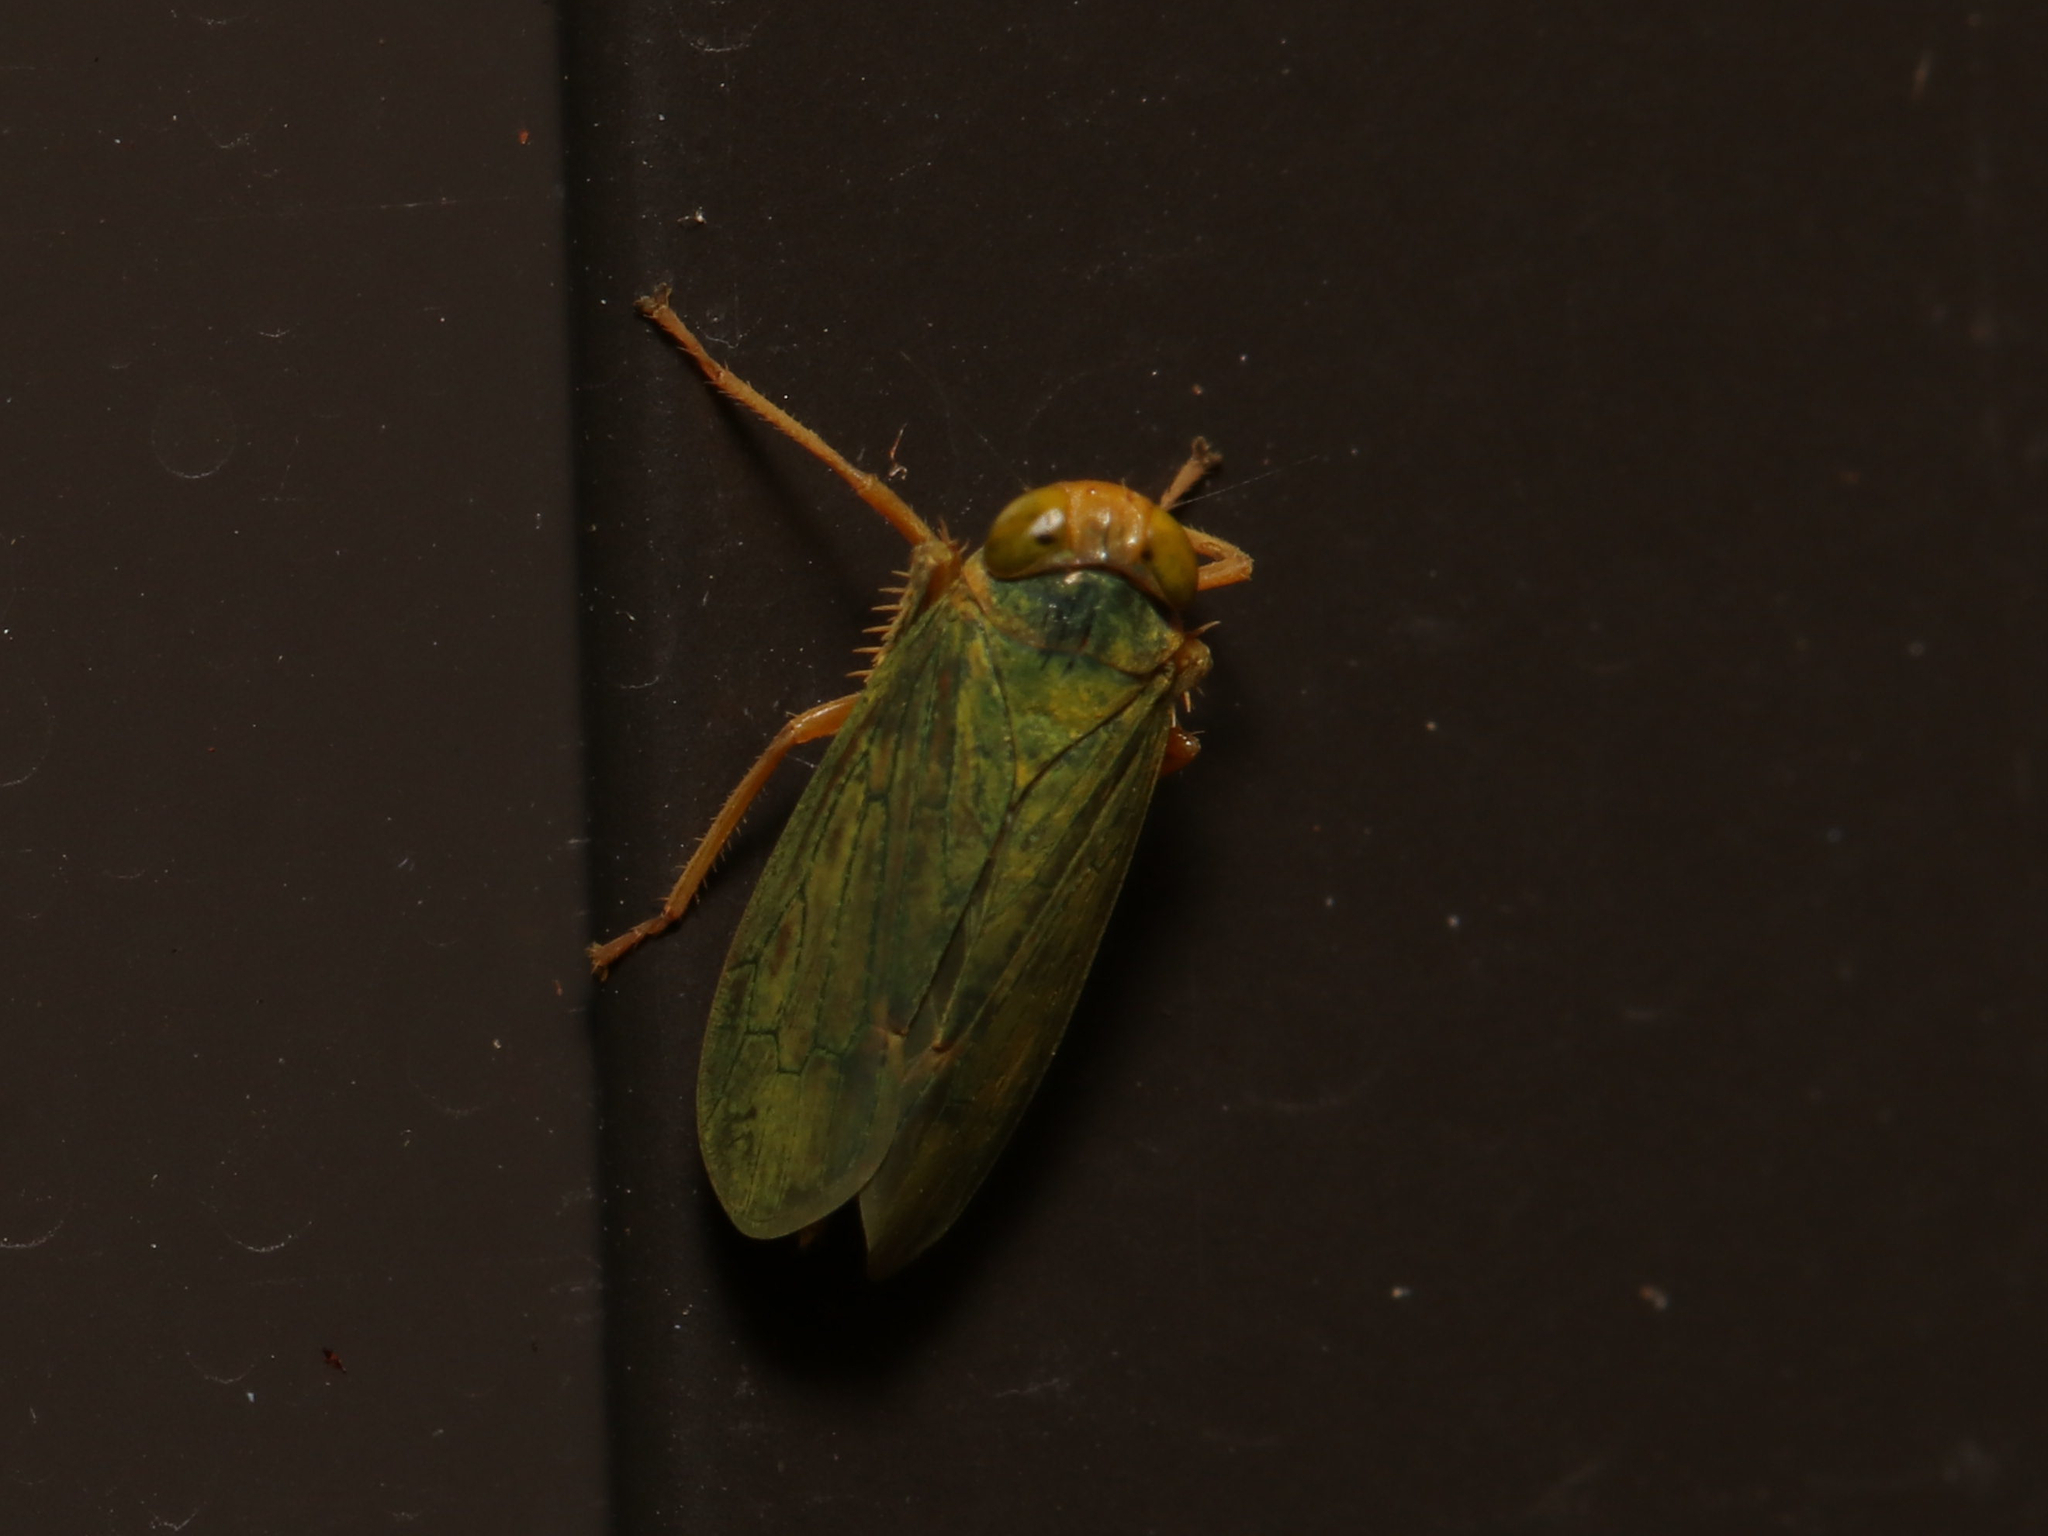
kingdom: Animalia
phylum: Arthropoda
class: Insecta
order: Hemiptera
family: Cicadellidae
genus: Jikradia
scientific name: Jikradia olitoria
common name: Coppery leafhopper
